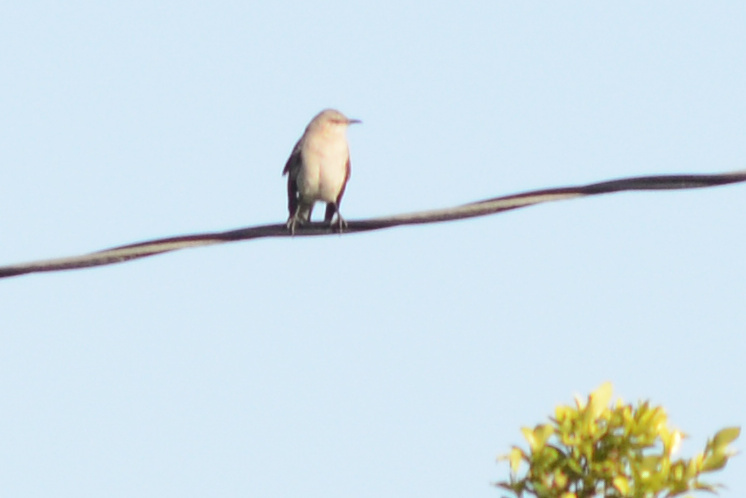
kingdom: Animalia
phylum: Chordata
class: Aves
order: Passeriformes
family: Mimidae
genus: Mimus
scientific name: Mimus polyglottos
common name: Northern mockingbird
